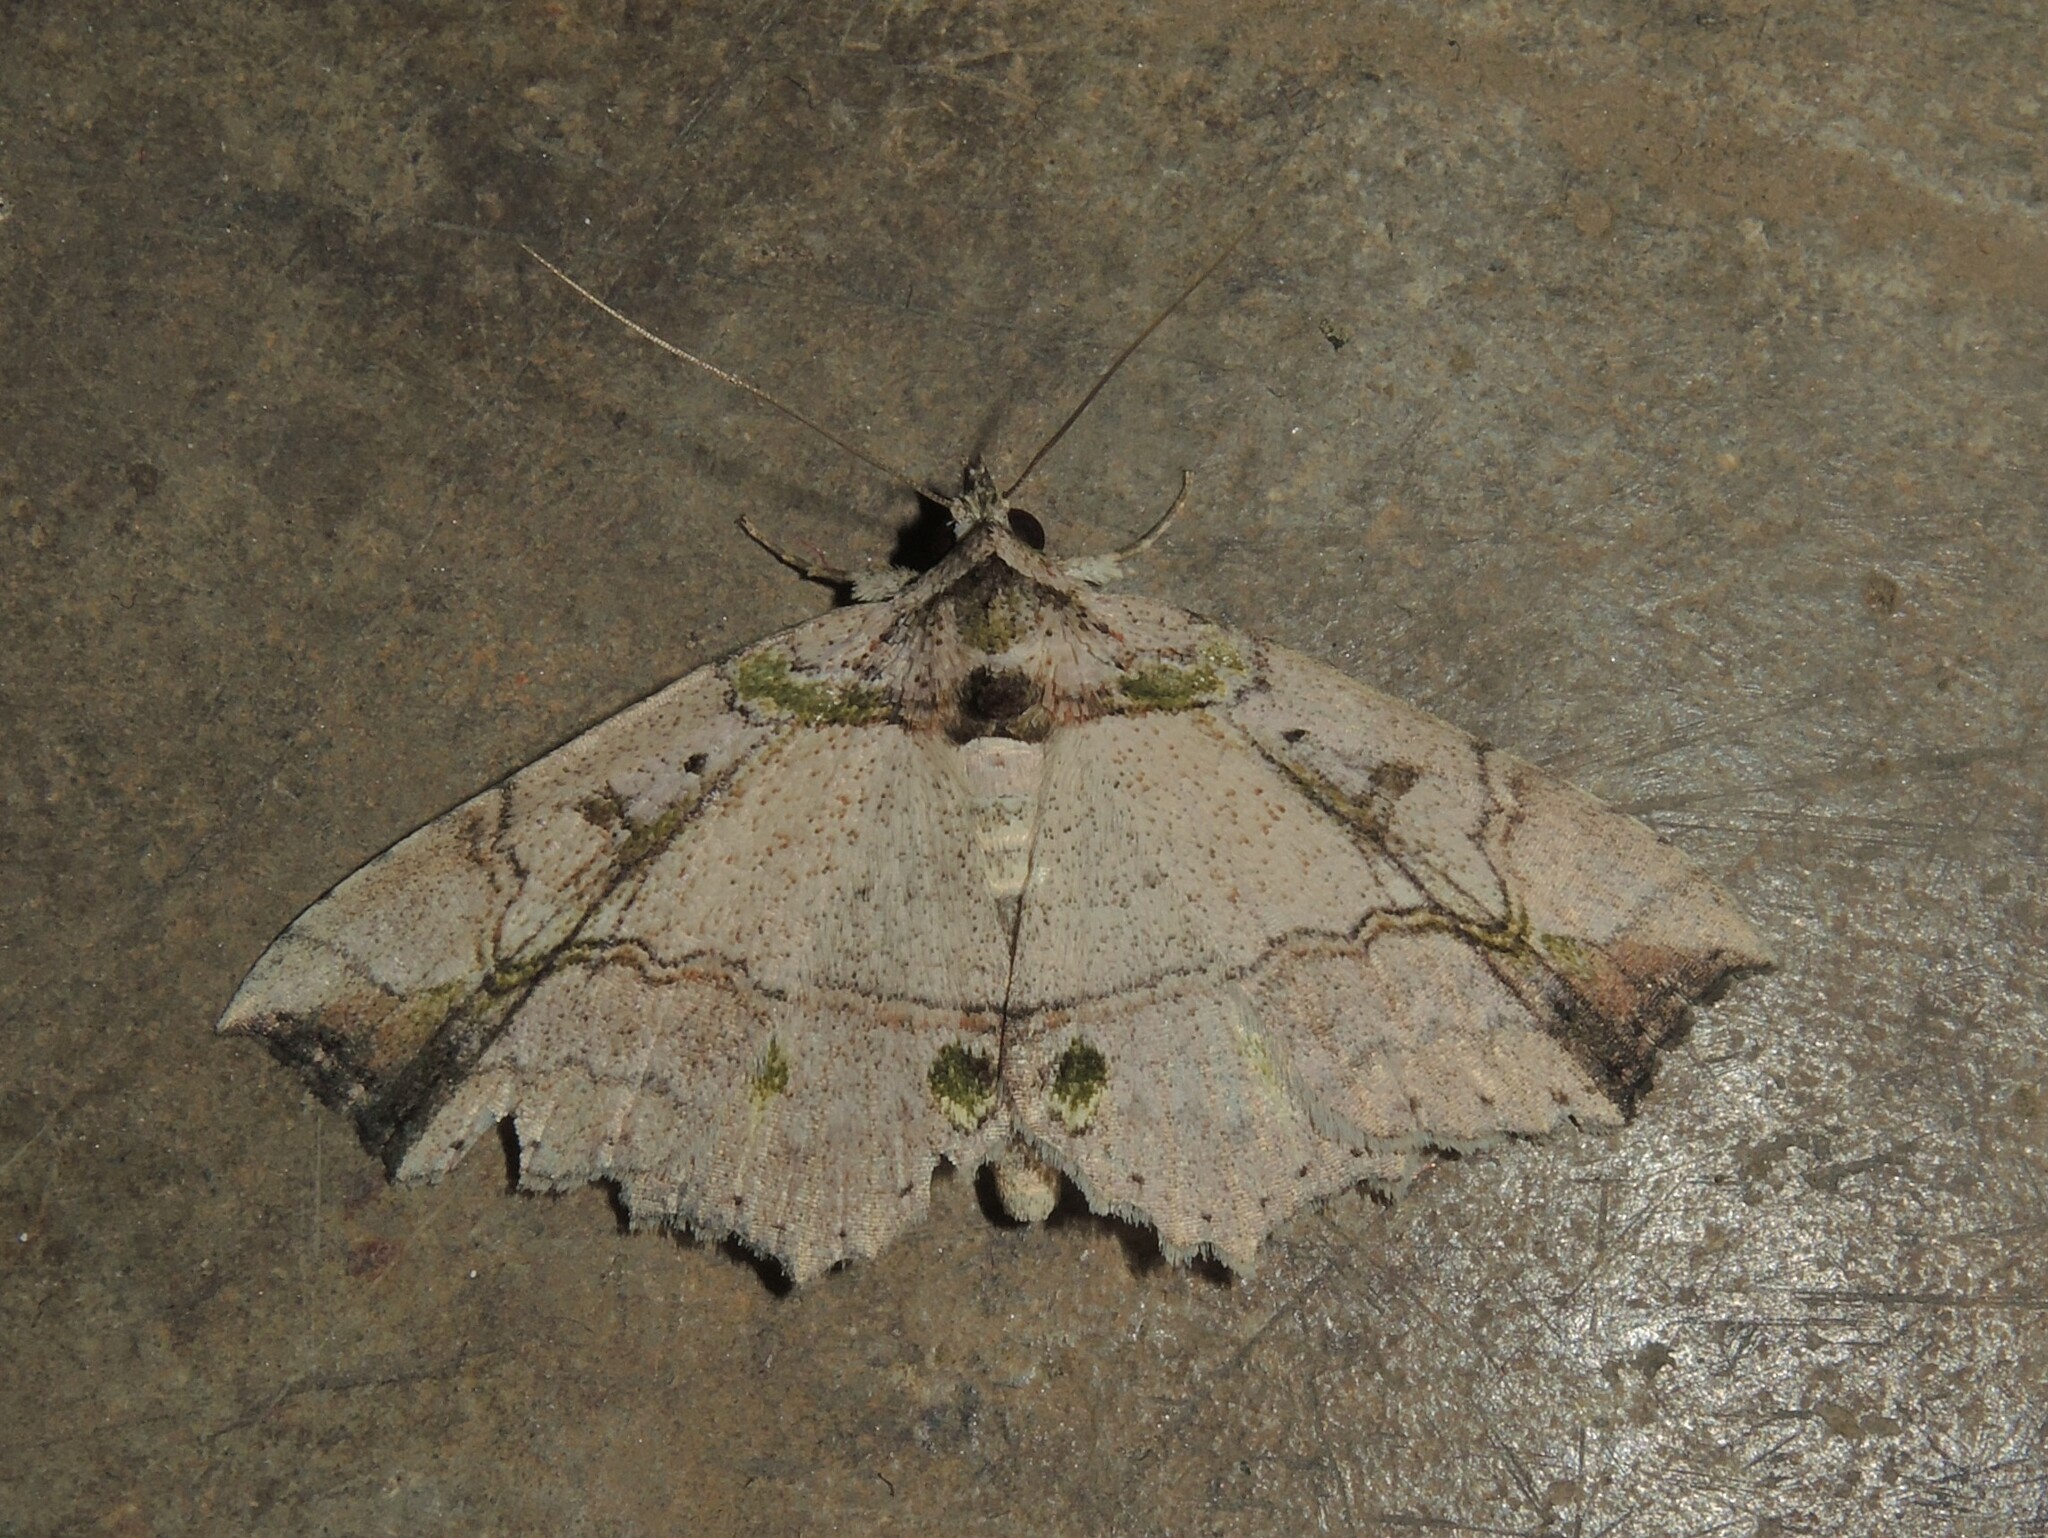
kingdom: Animalia
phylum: Arthropoda
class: Insecta
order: Lepidoptera
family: Erebidae
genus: Tamba
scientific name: Tamba mnionomera
